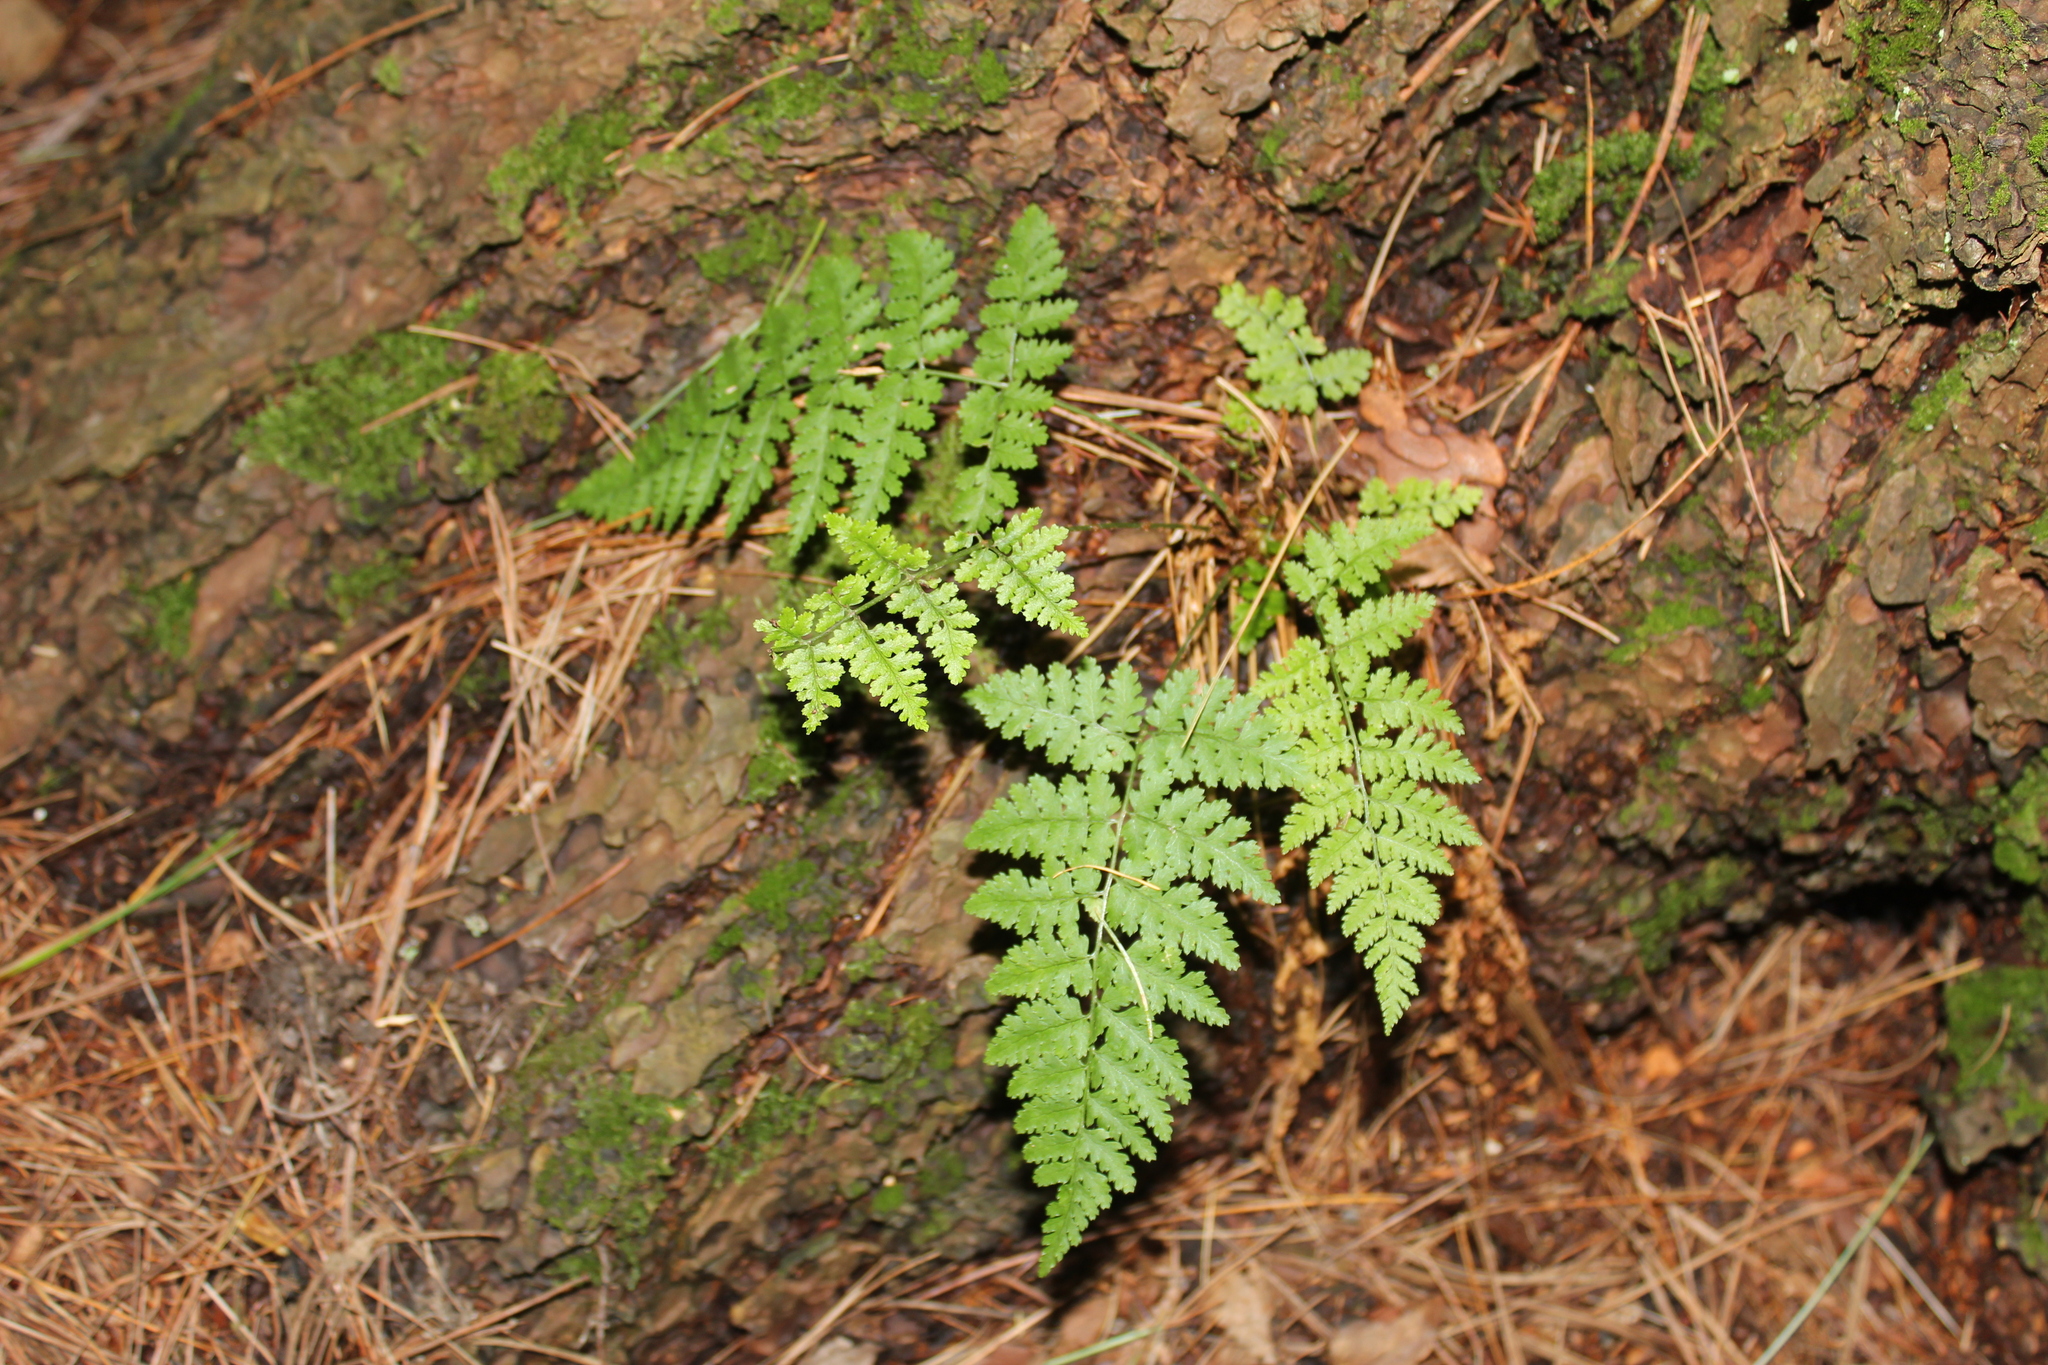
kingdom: Plantae
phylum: Tracheophyta
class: Polypodiopsida
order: Polypodiales
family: Dryopteridaceae
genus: Dryopteris
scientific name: Dryopteris intermedia
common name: Evergreen wood fern
